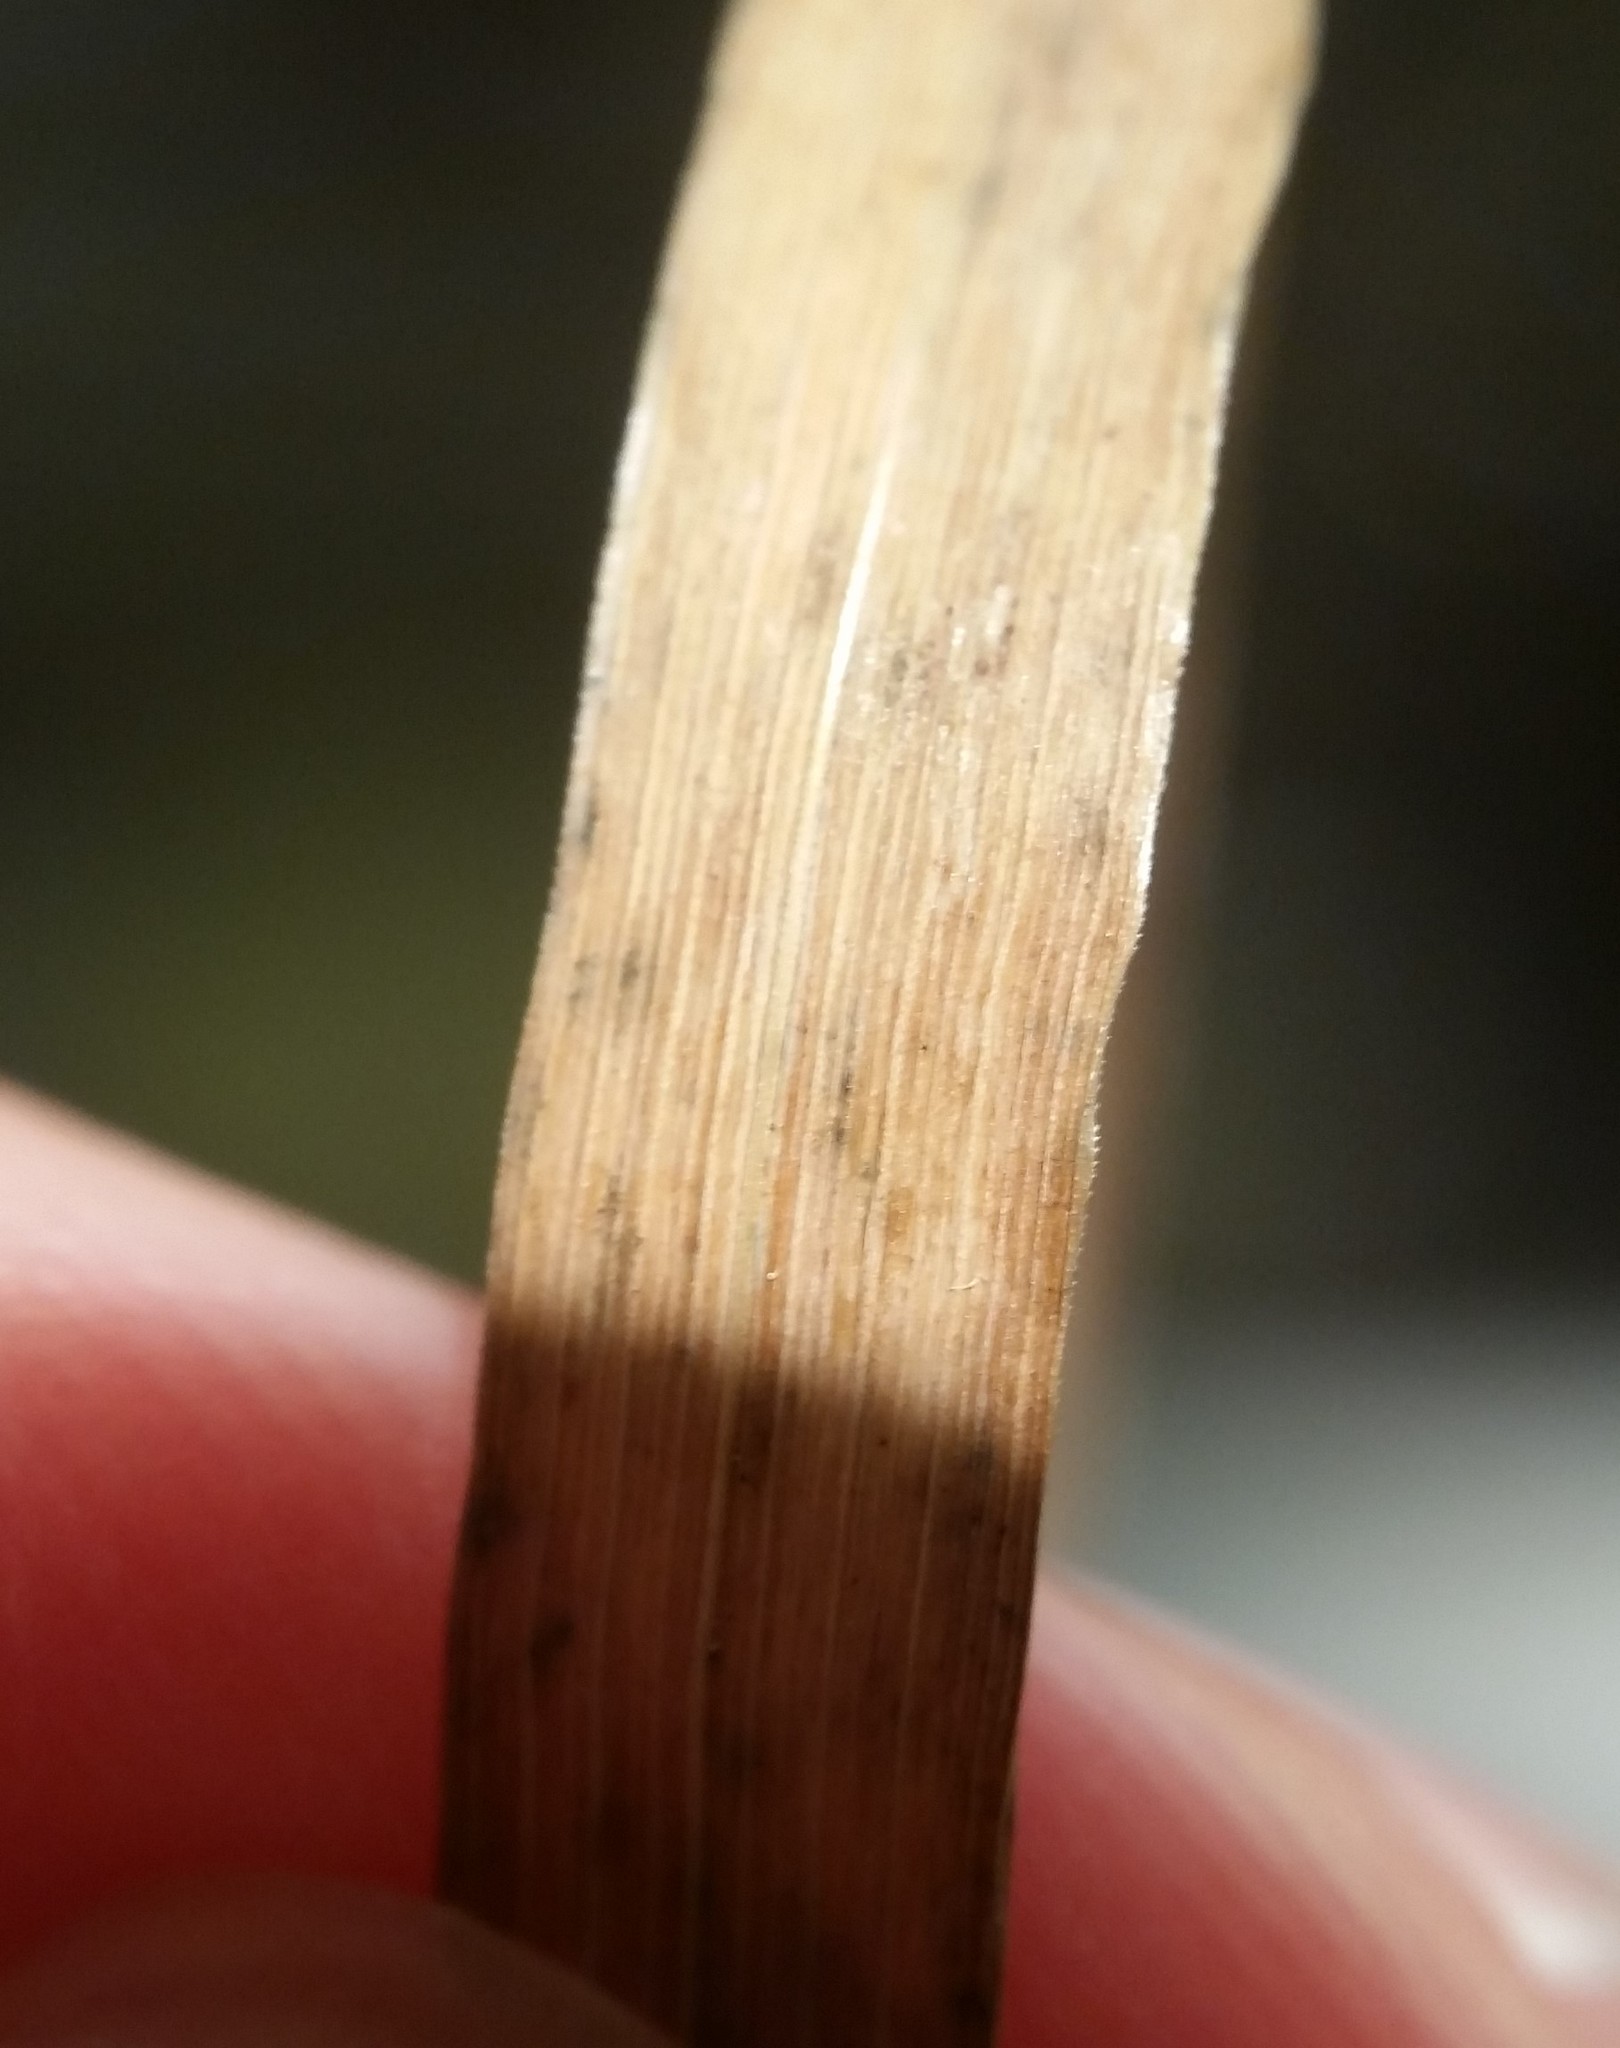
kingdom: Plantae
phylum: Tracheophyta
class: Liliopsida
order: Poales
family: Poaceae
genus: Sphenopholis
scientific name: Sphenopholis obtusata
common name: Prairie grass
